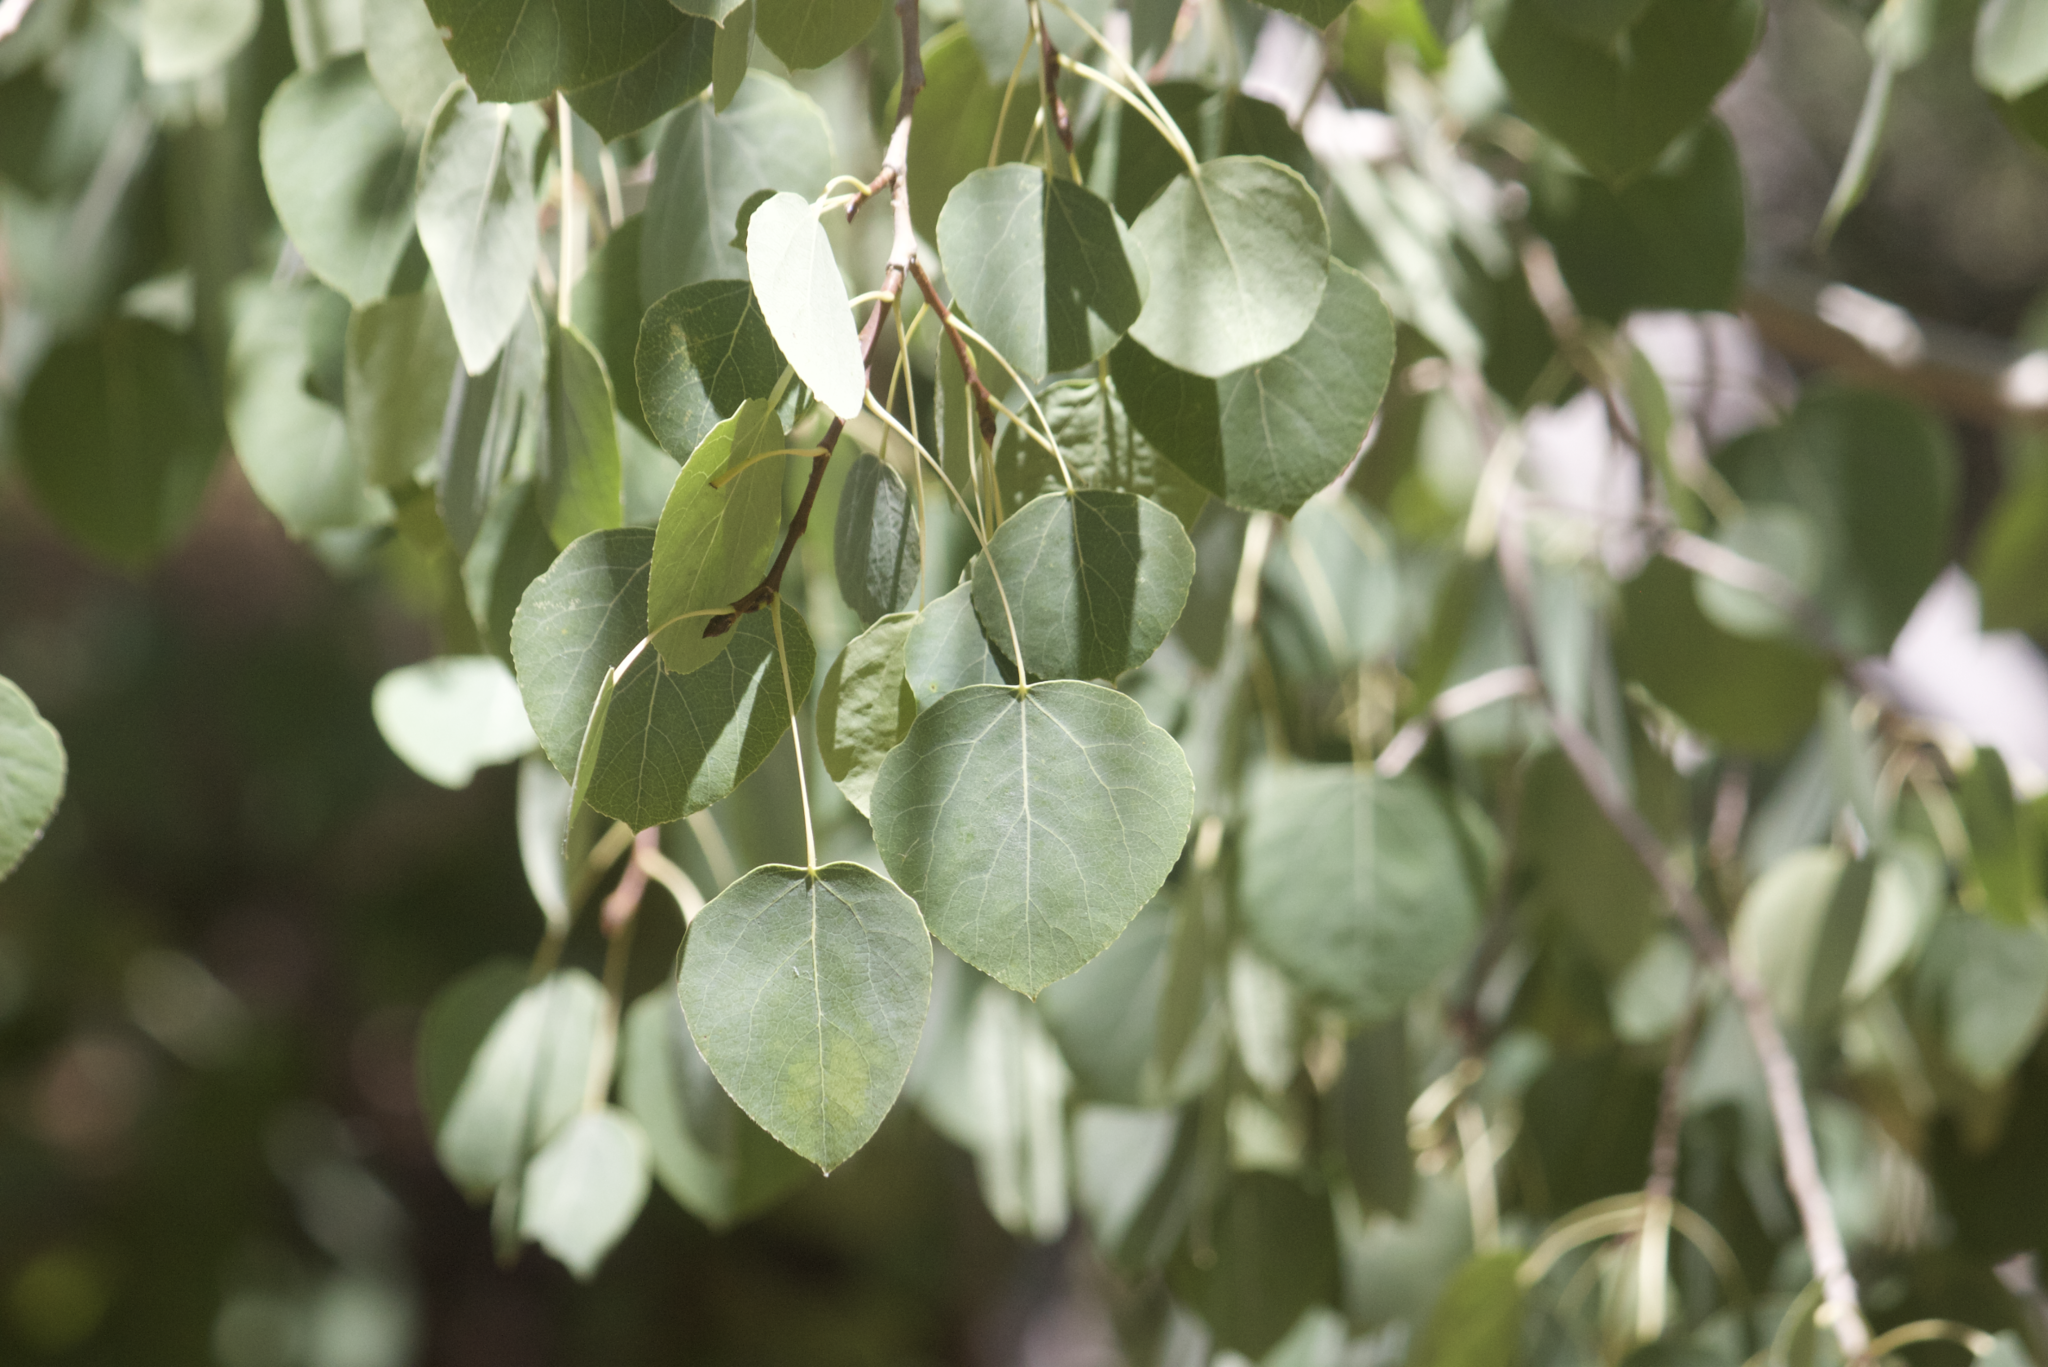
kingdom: Plantae
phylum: Tracheophyta
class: Magnoliopsida
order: Malpighiales
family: Salicaceae
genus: Populus
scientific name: Populus tremuloides
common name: Quaking aspen
